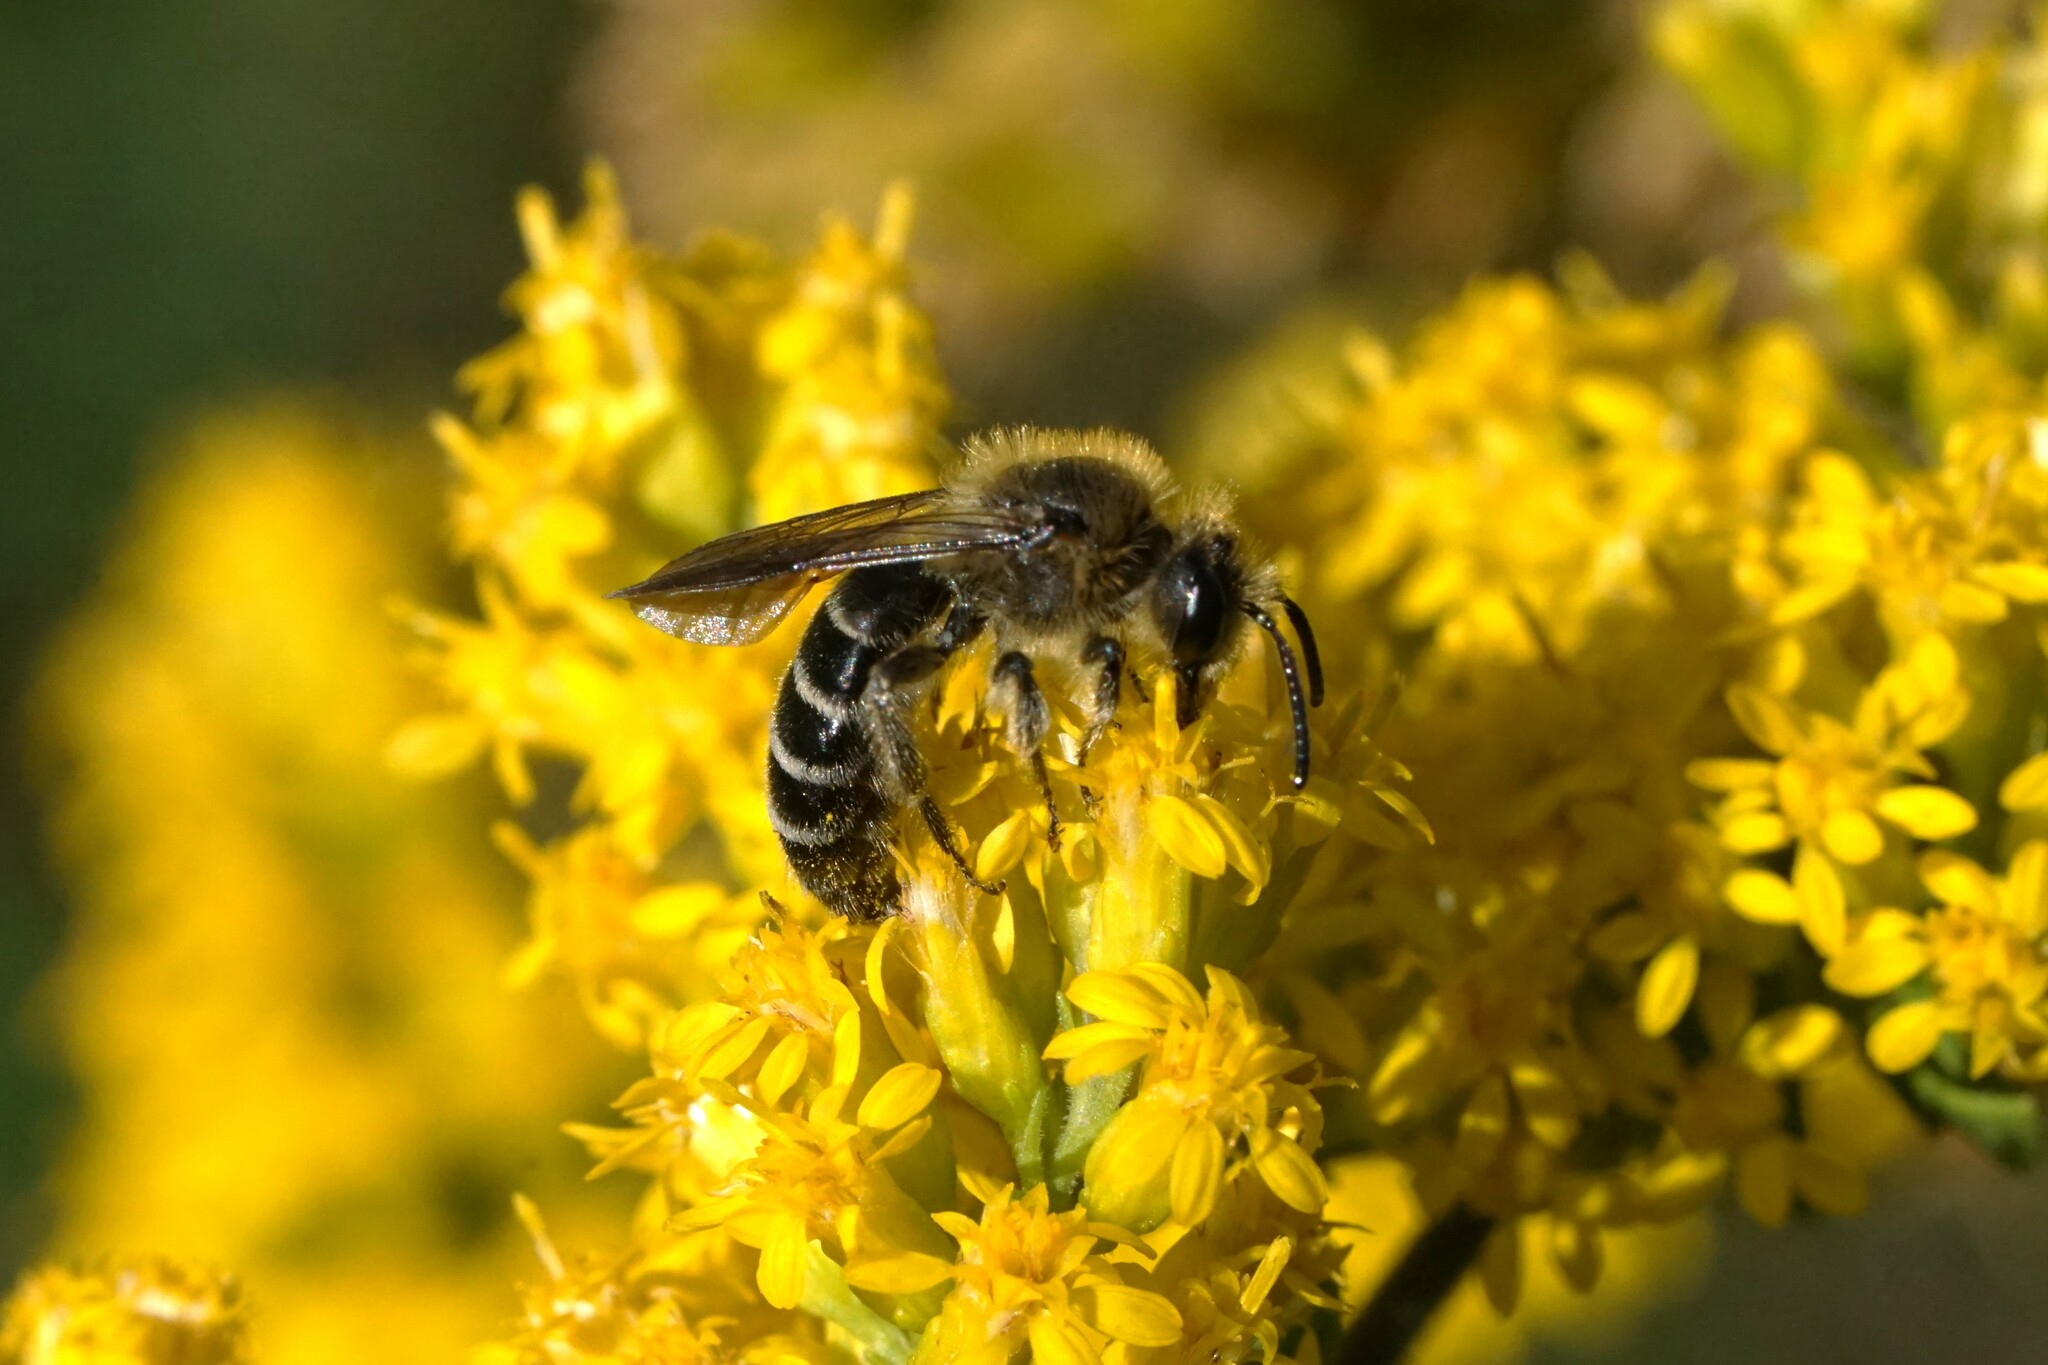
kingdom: Animalia
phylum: Arthropoda
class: Insecta
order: Hymenoptera
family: Andrenidae
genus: Andrena
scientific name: Andrena asteris
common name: Aster mining bee
